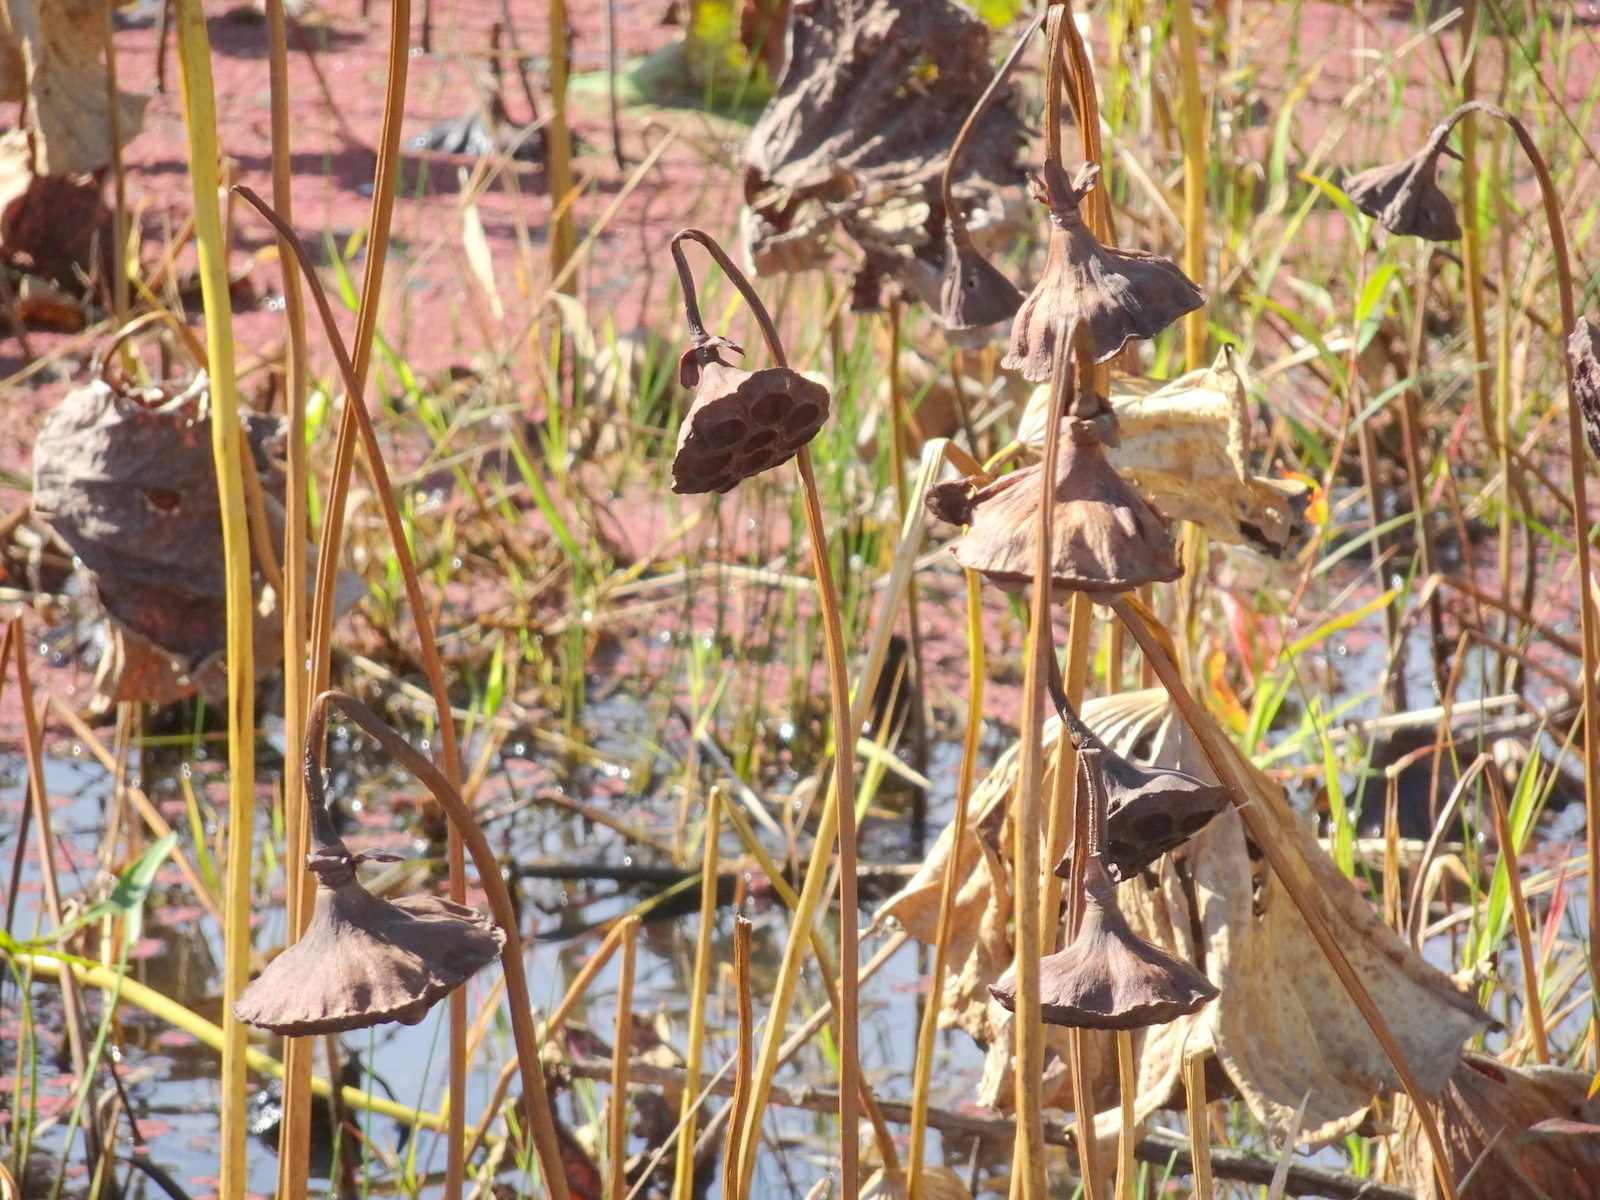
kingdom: Plantae
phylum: Tracheophyta
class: Magnoliopsida
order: Proteales
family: Nelumbonaceae
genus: Nelumbo
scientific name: Nelumbo lutea
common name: American lotus
